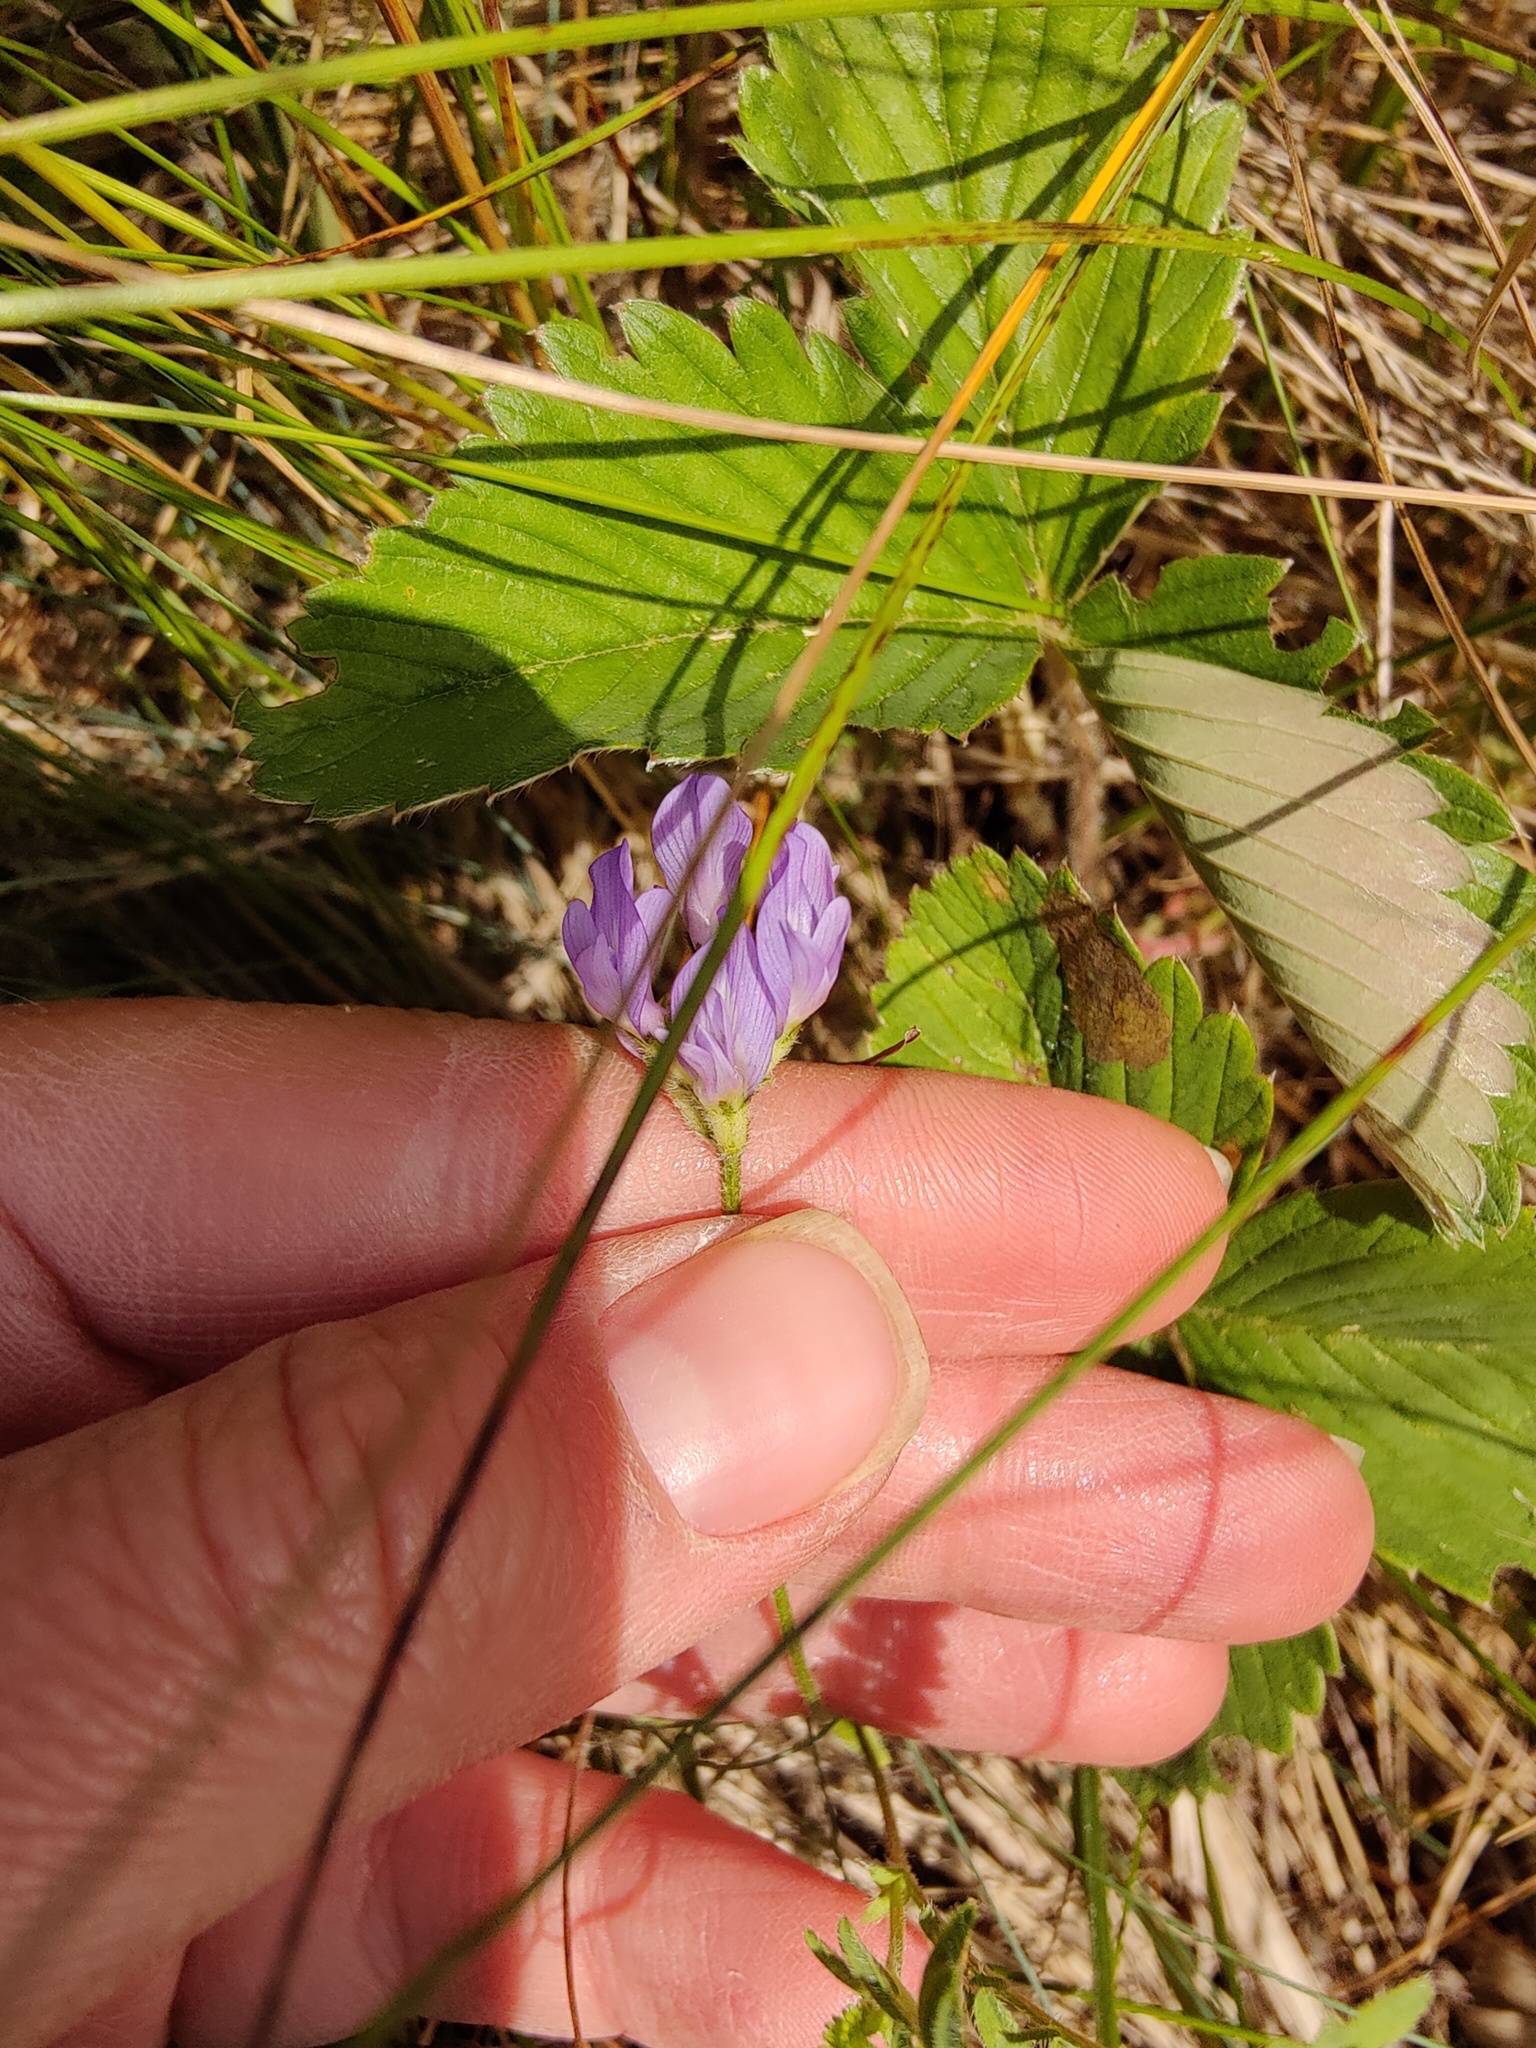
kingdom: Plantae
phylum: Tracheophyta
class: Magnoliopsida
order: Fabales
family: Fabaceae
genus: Astragalus
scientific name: Astragalus danicus
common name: Purple milk-vetch
